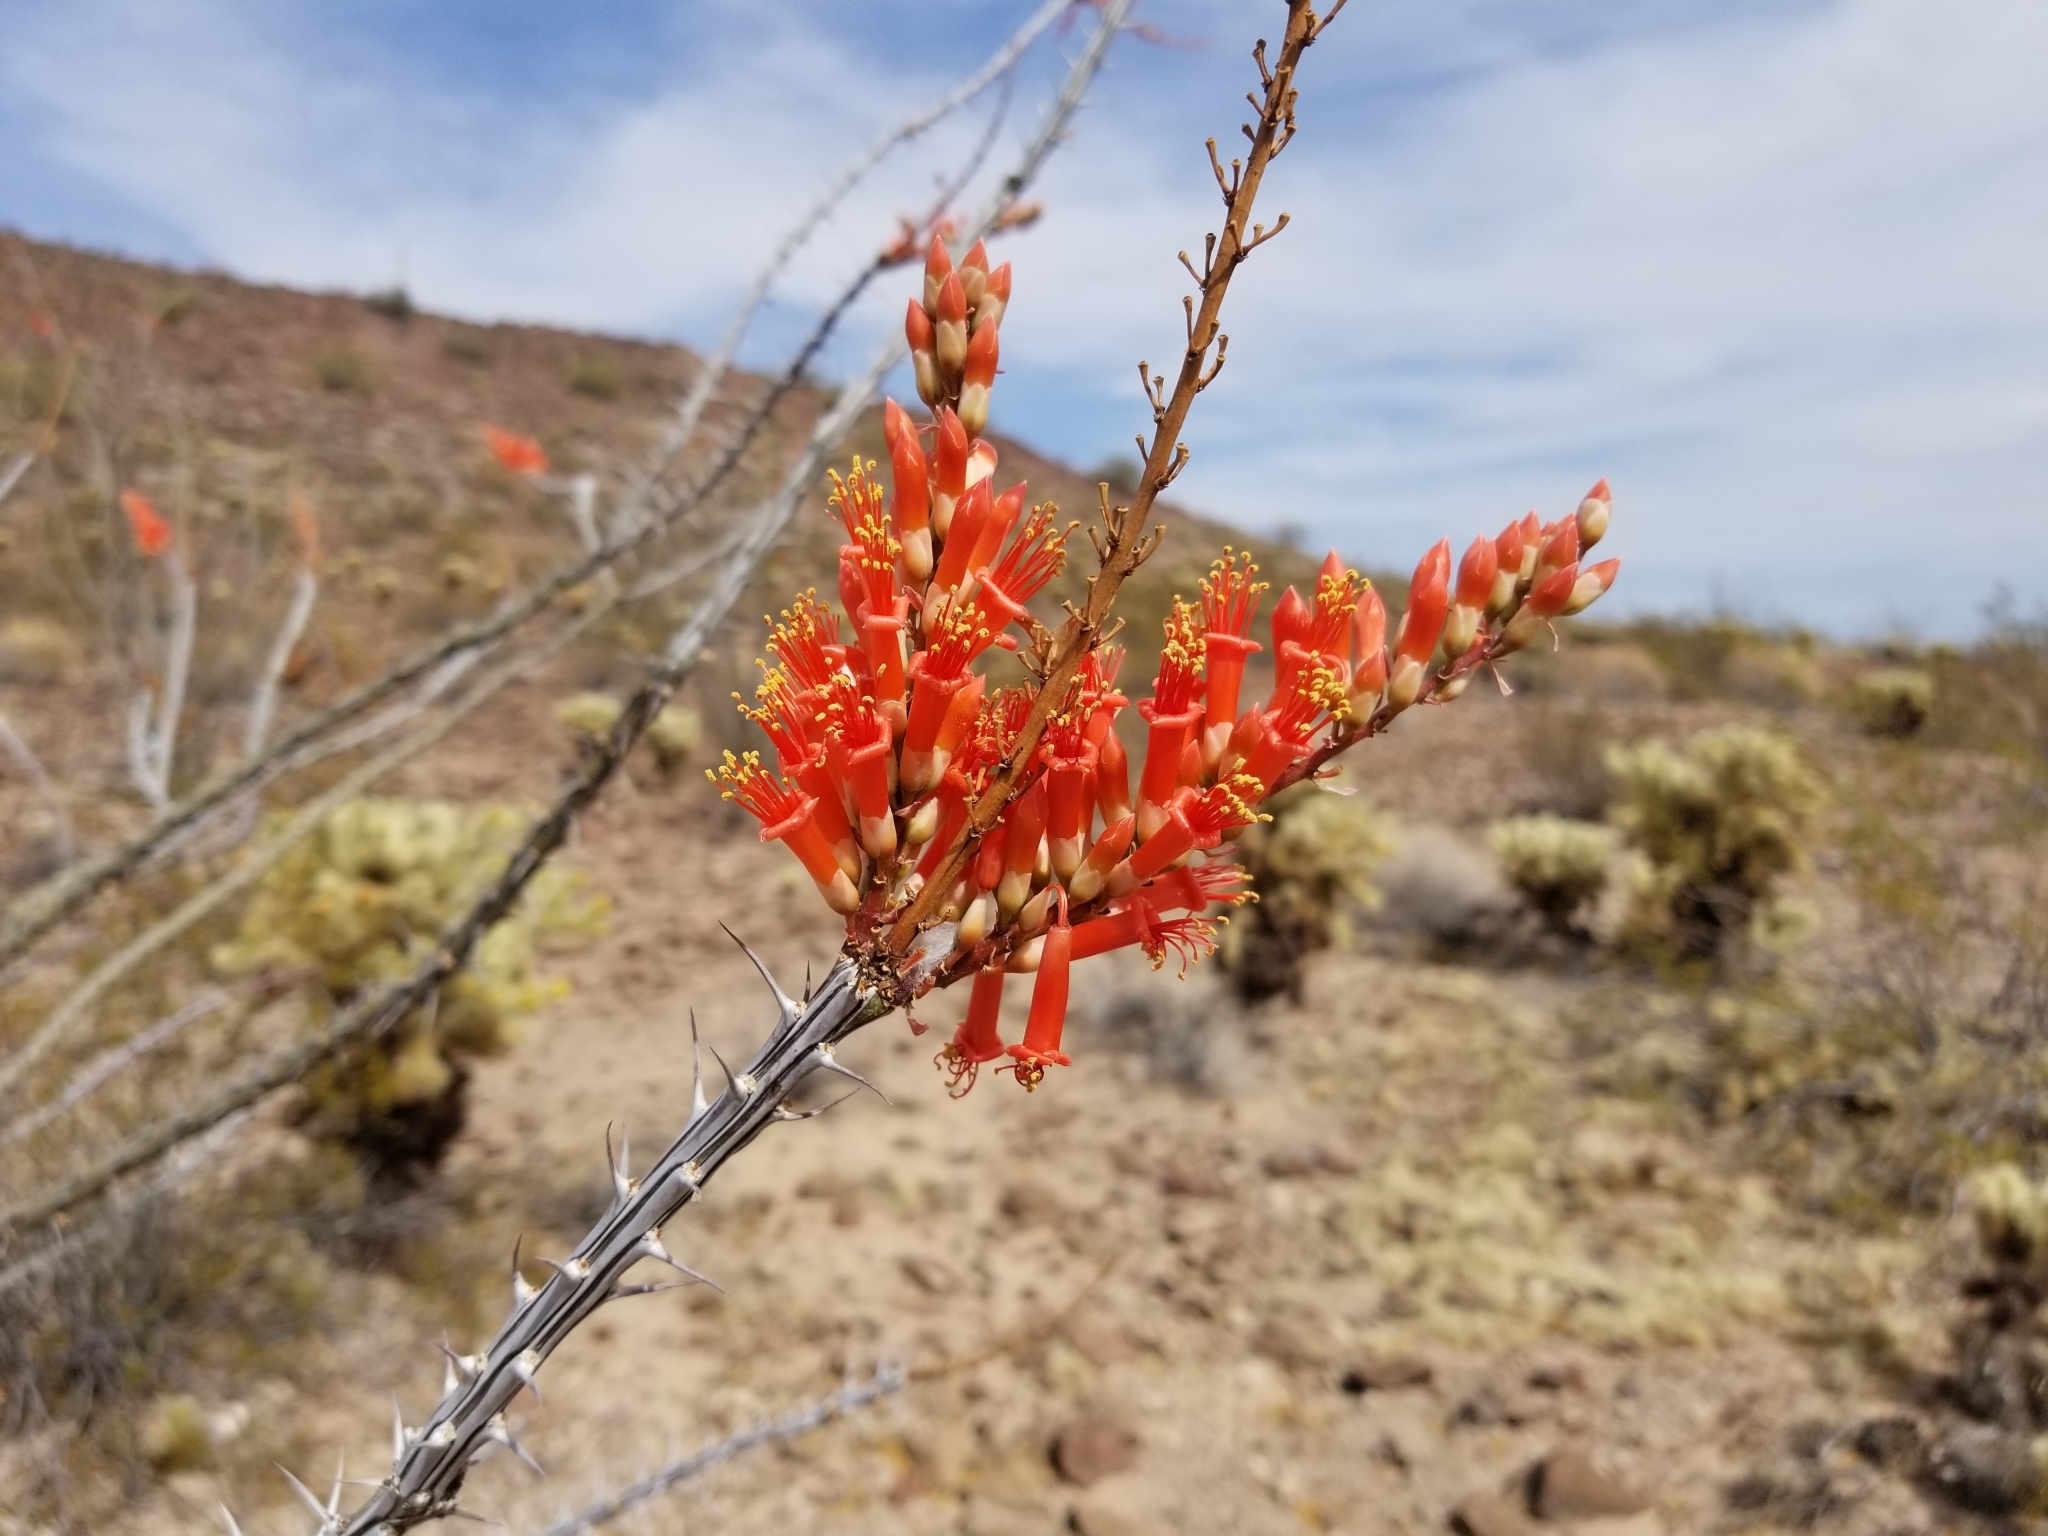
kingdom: Plantae
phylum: Tracheophyta
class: Magnoliopsida
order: Ericales
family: Fouquieriaceae
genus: Fouquieria
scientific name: Fouquieria splendens
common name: Vine-cactus
